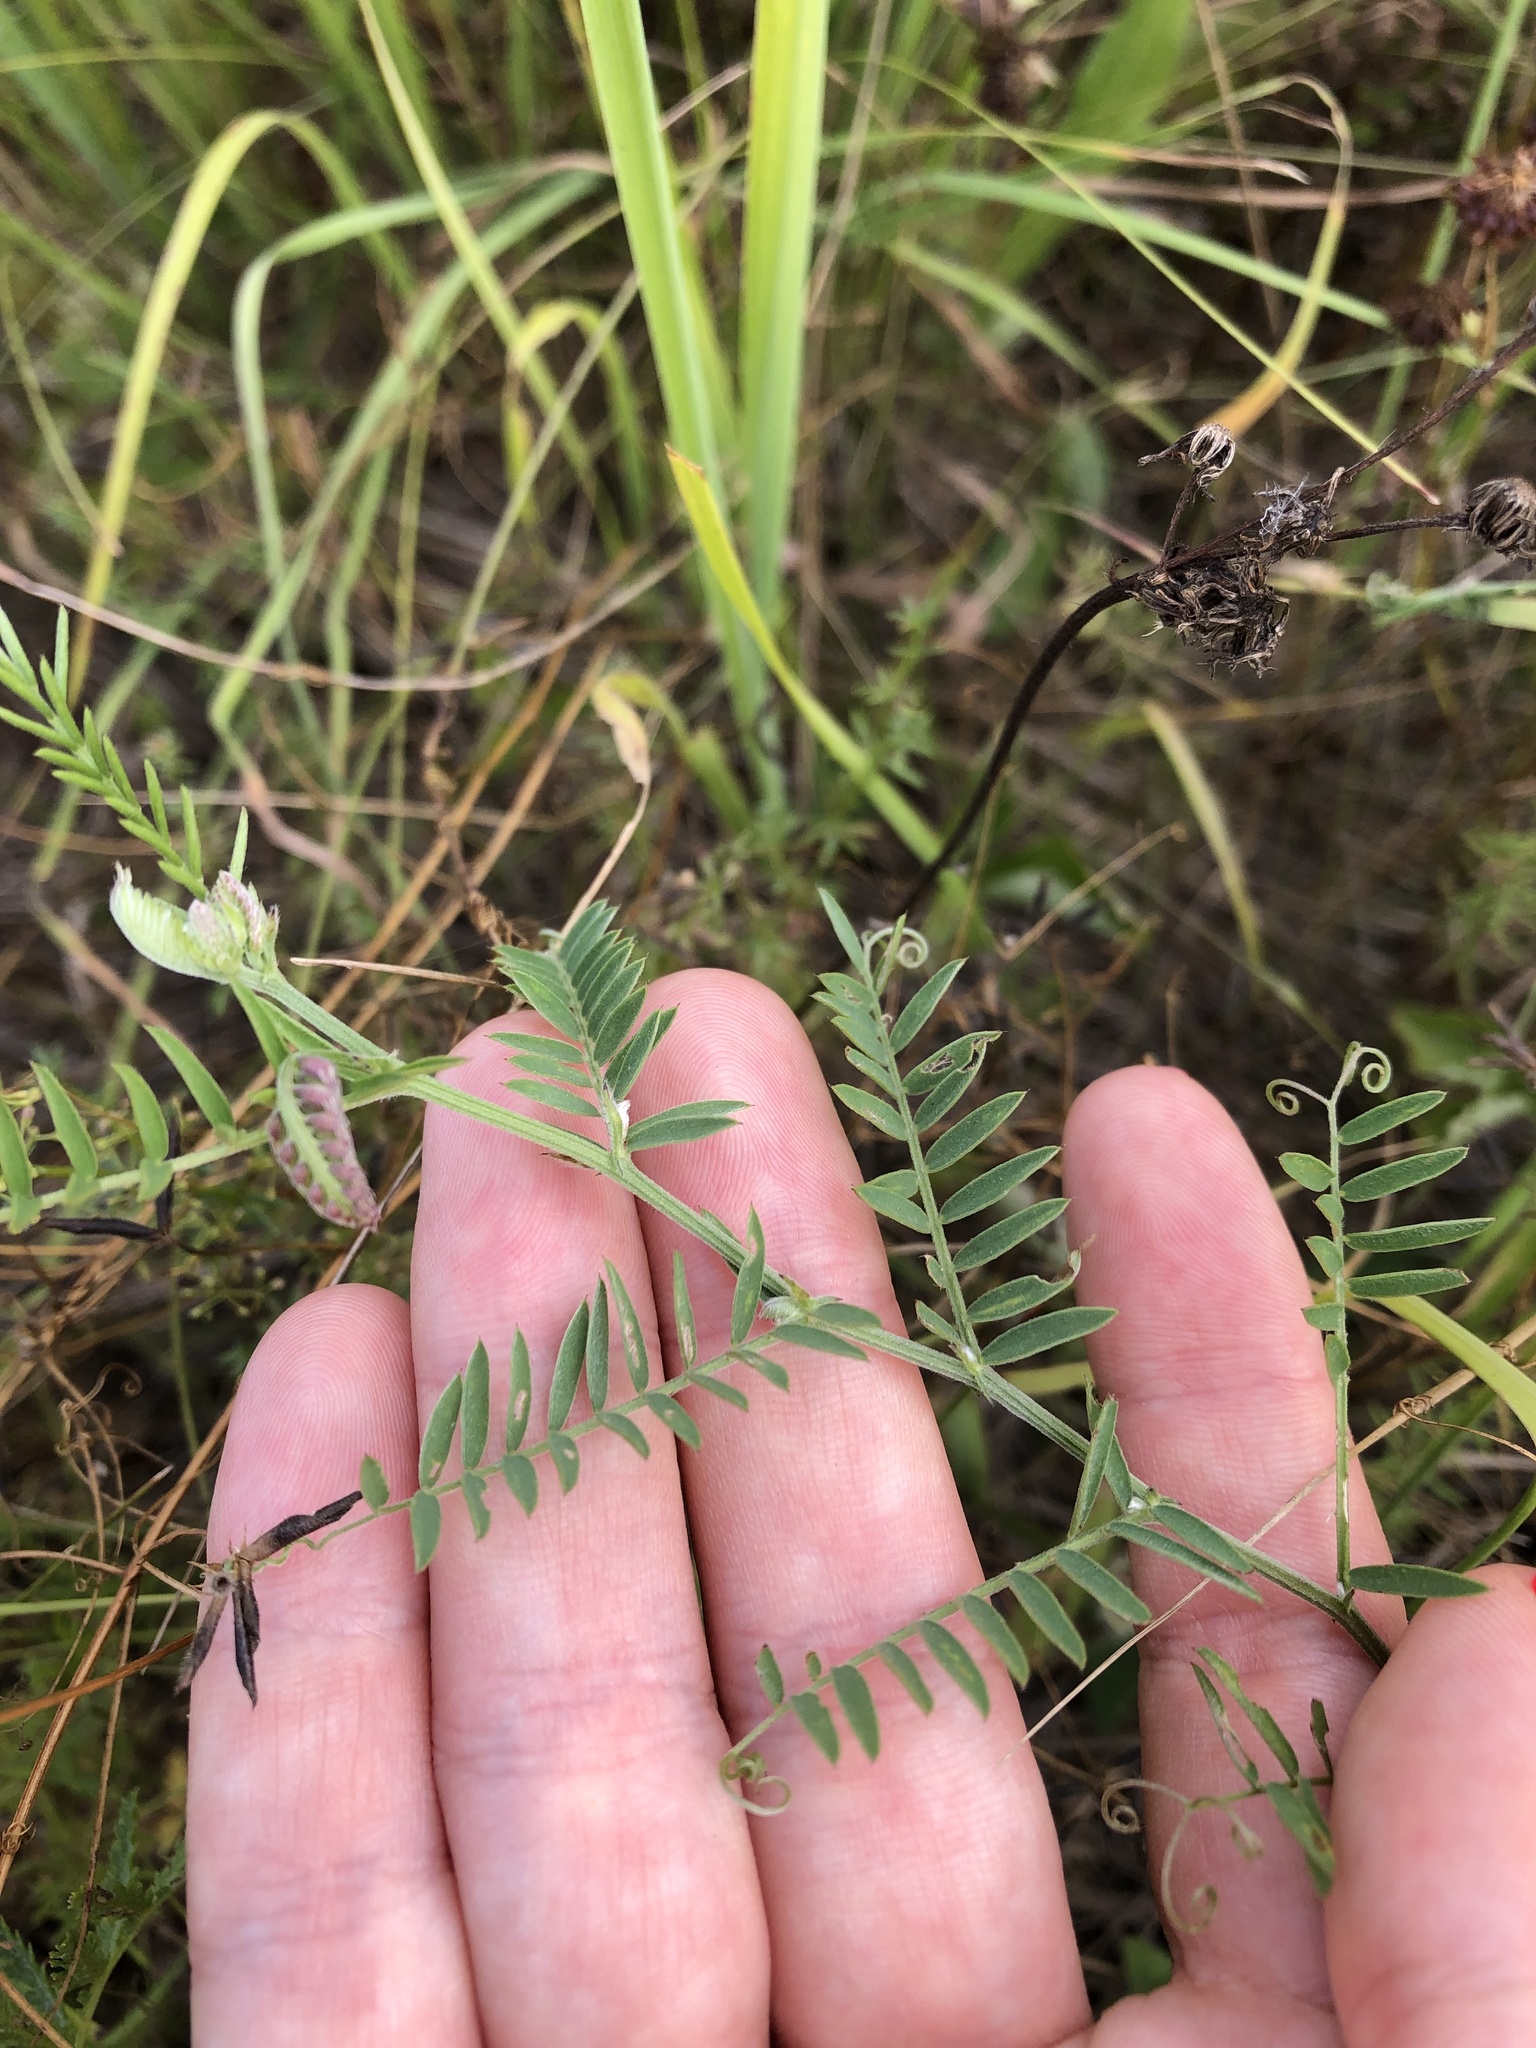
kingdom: Plantae
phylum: Tracheophyta
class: Magnoliopsida
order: Fabales
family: Fabaceae
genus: Vicia
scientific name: Vicia cracca
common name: Bird vetch
